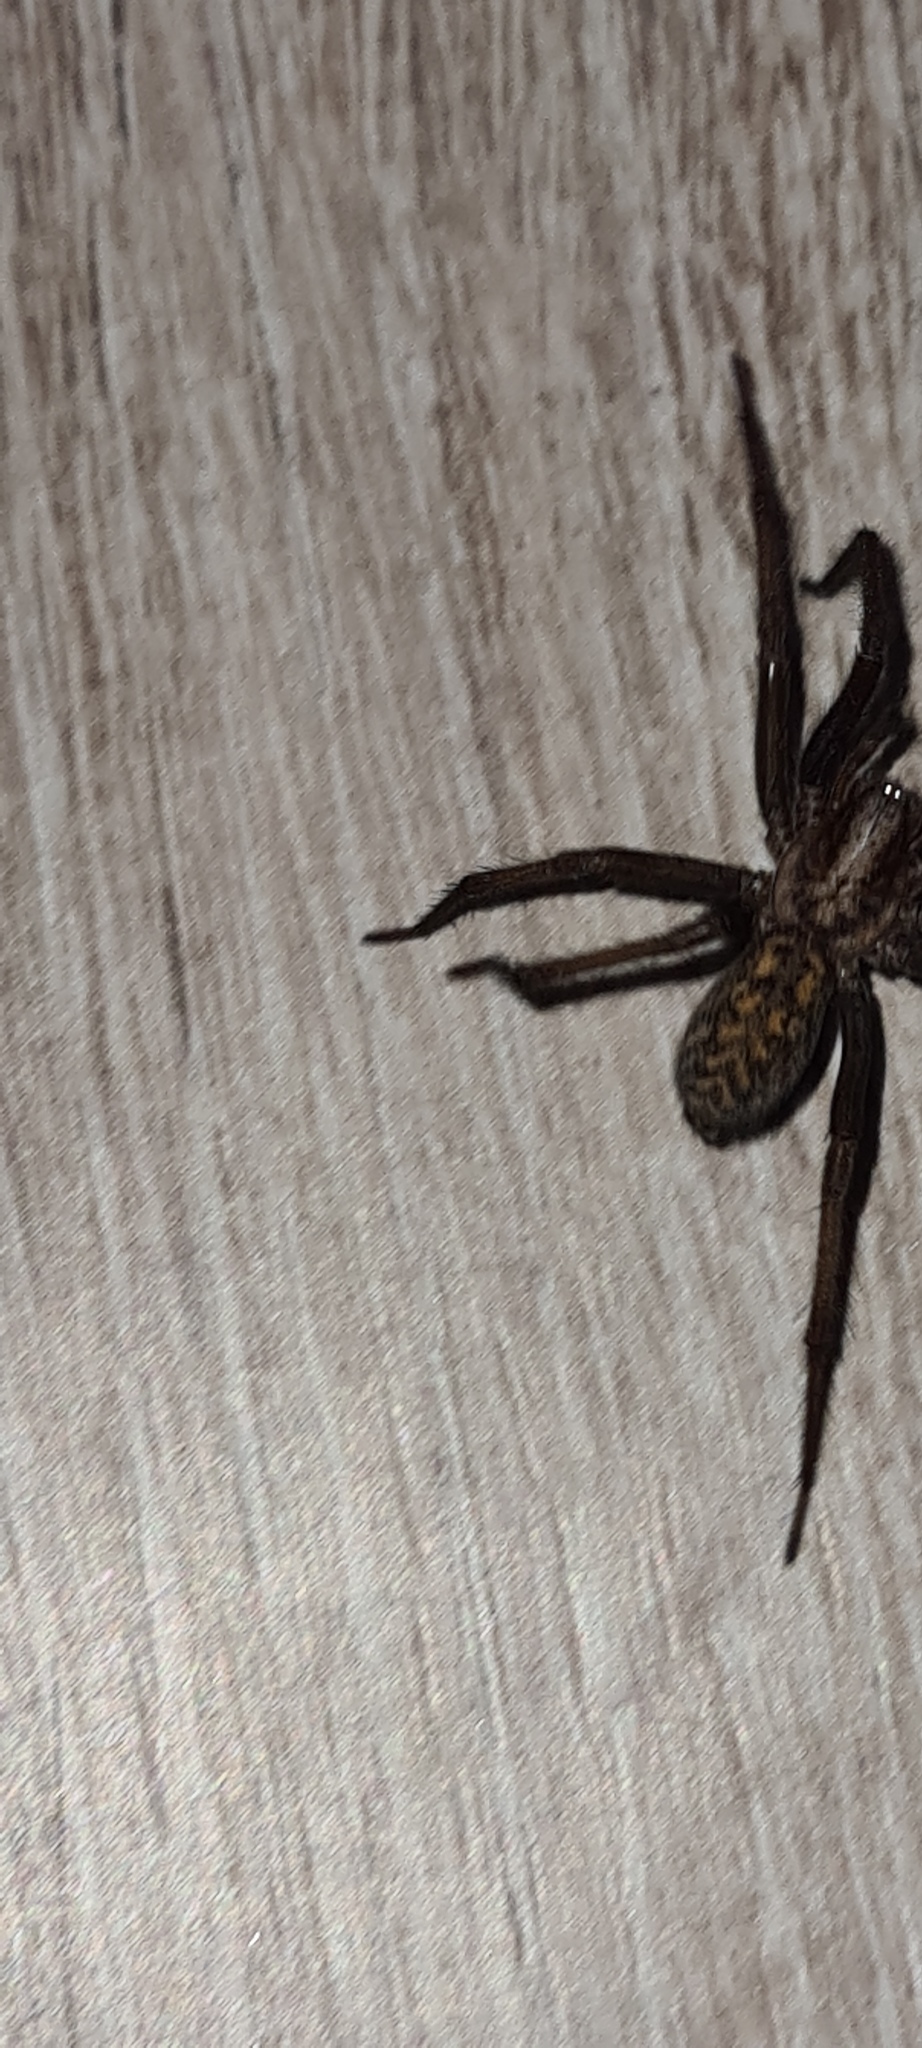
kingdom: Animalia
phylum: Arthropoda
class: Arachnida
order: Araneae
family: Agelenidae
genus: Eratigena
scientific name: Eratigena atrica
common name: Giant house spider
